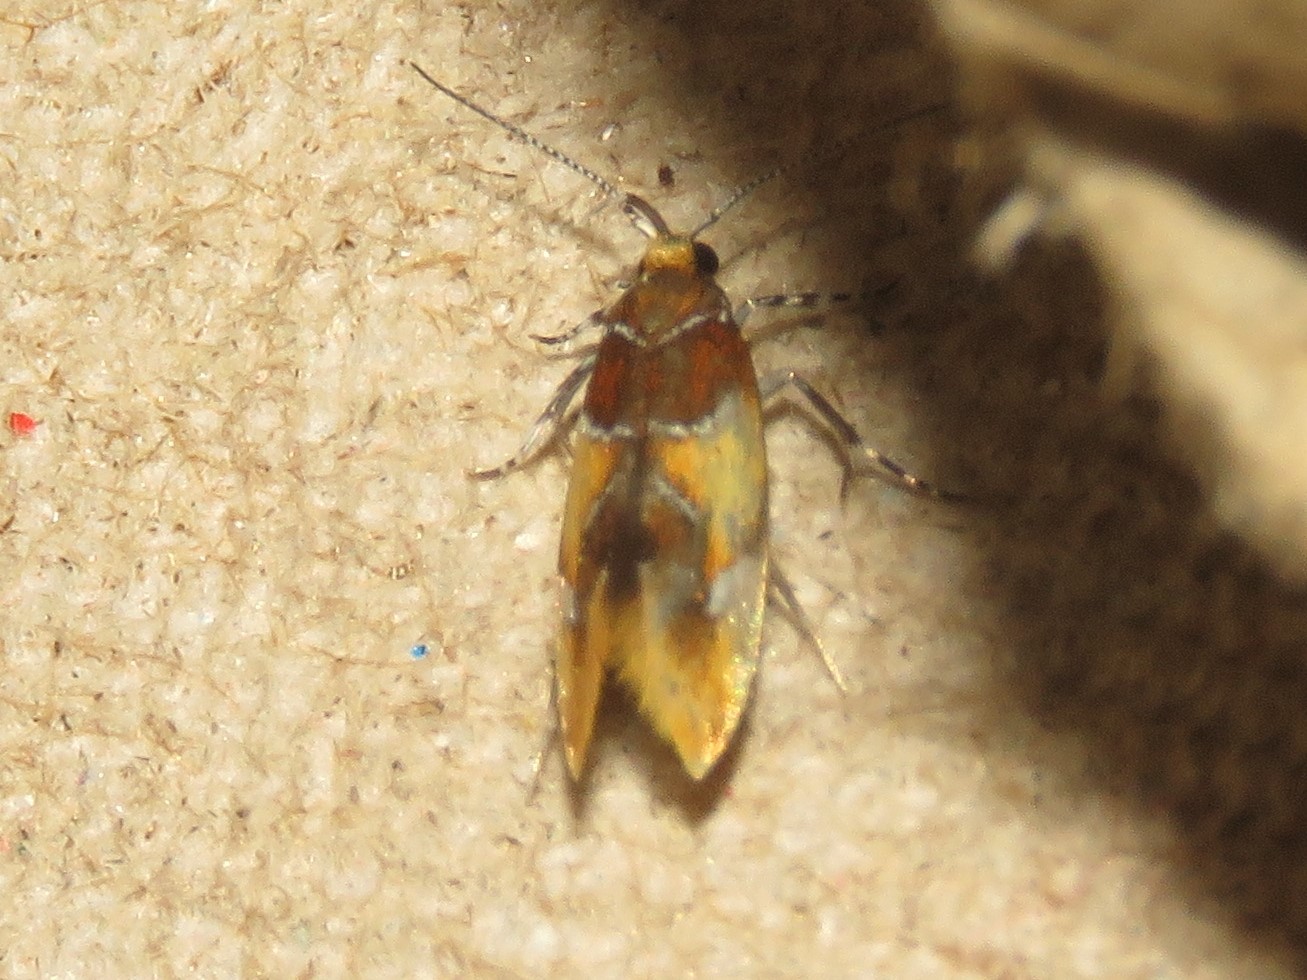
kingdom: Animalia
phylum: Arthropoda
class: Insecta
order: Lepidoptera
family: Oecophoridae
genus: Callima
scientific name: Callima argenticinctella
